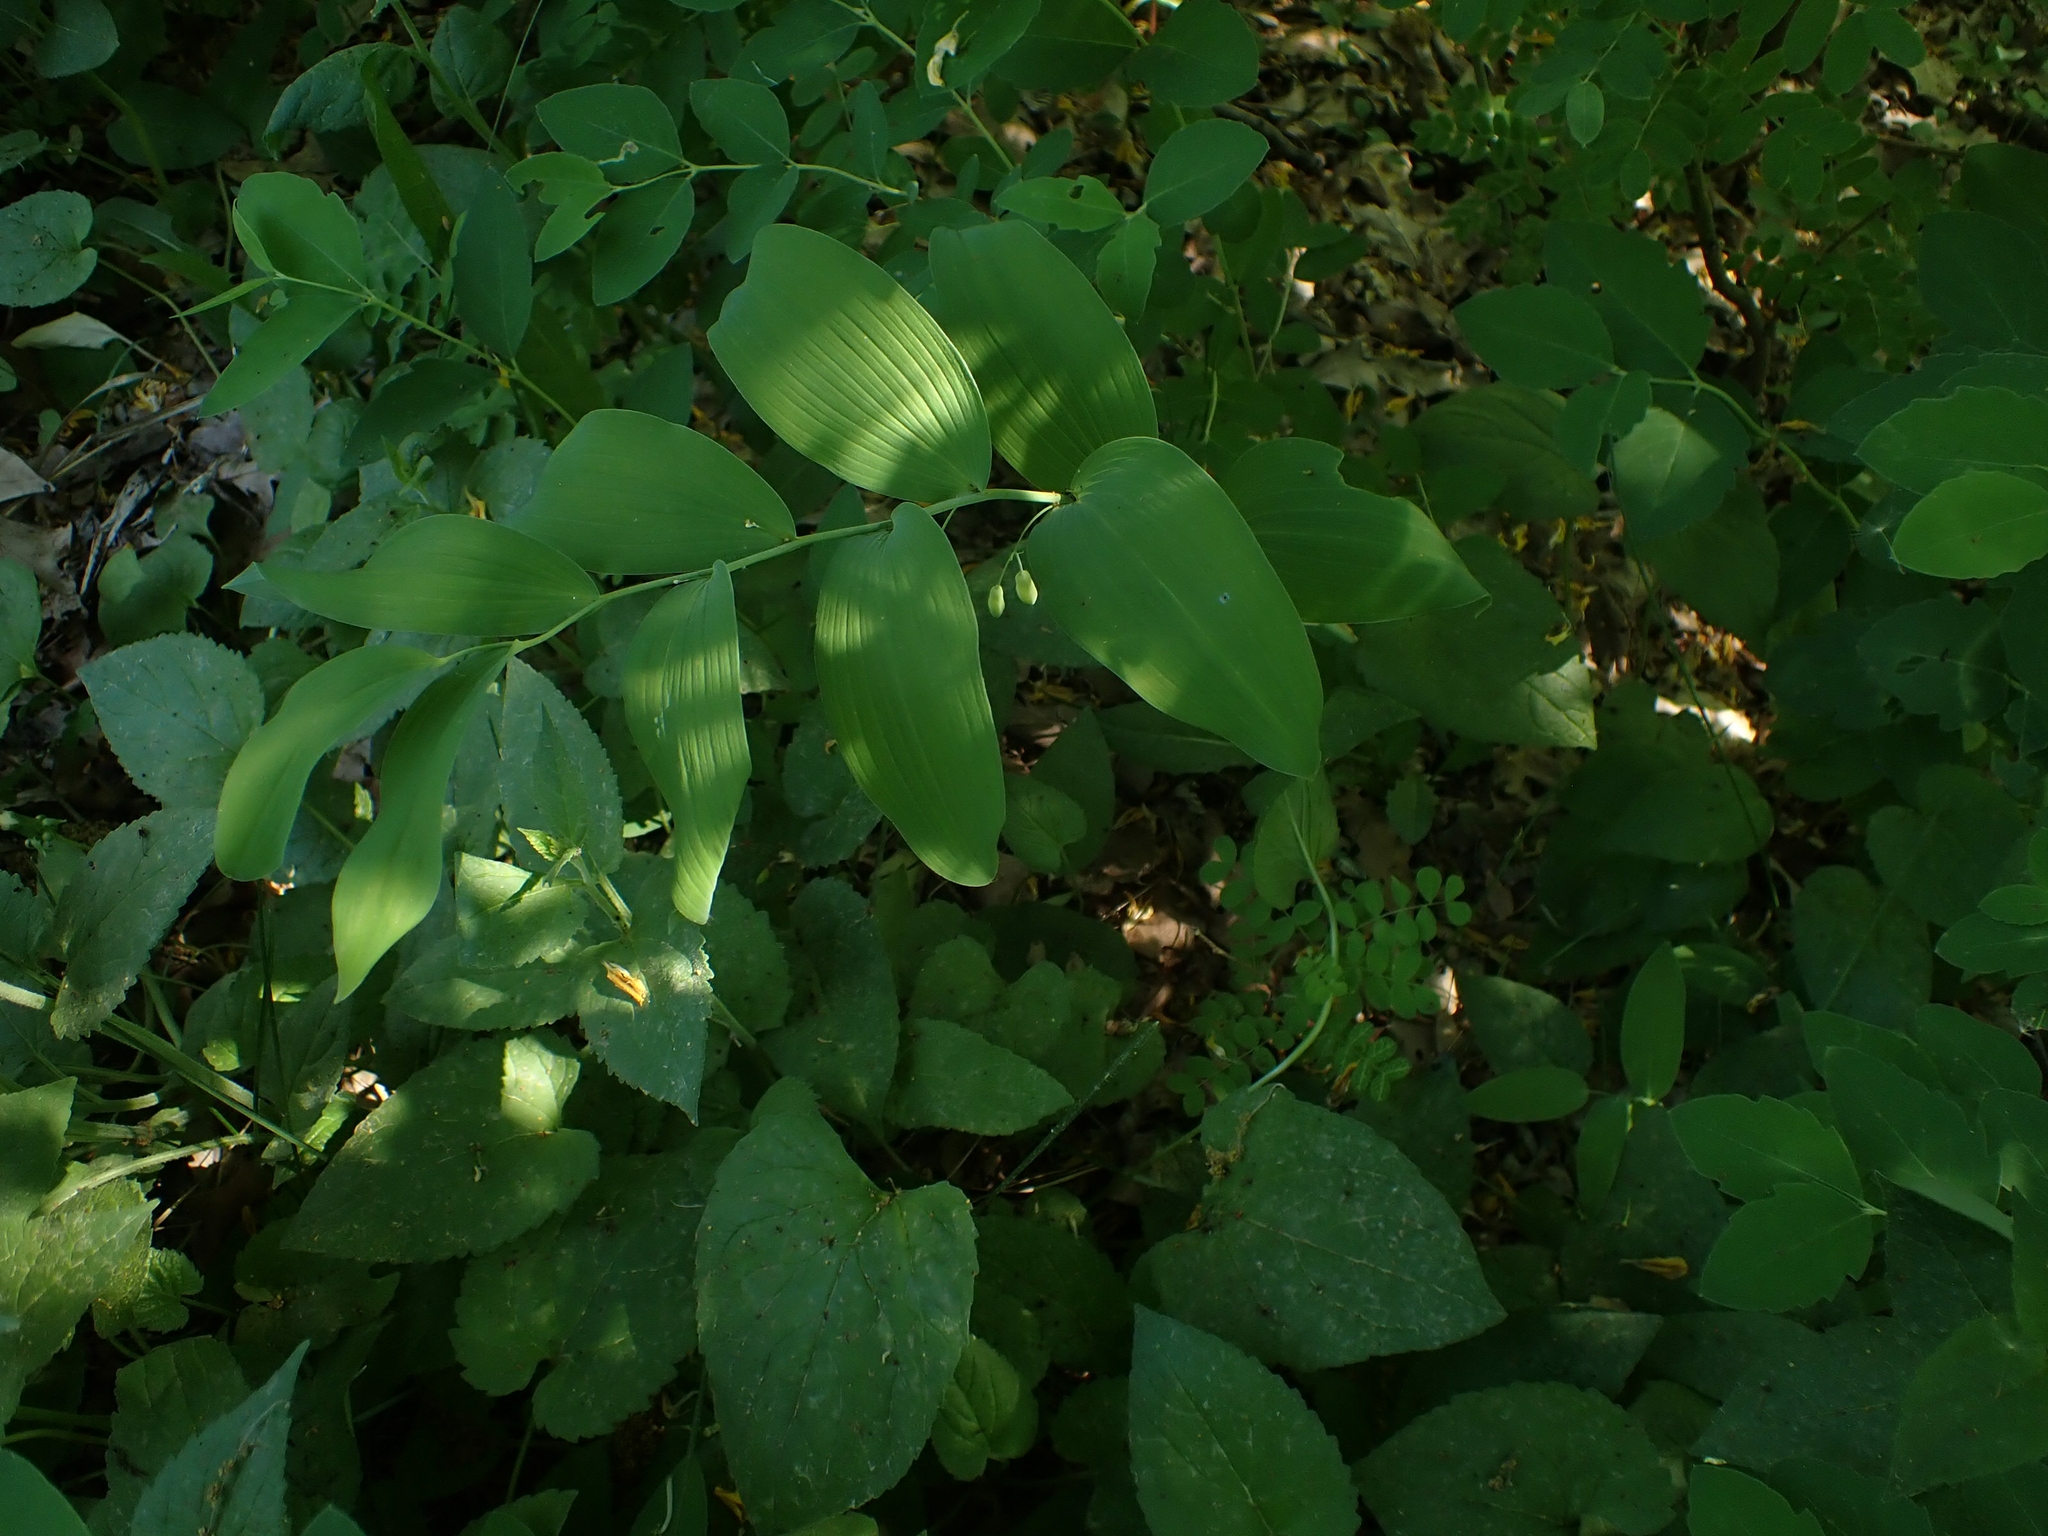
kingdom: Plantae
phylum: Tracheophyta
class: Liliopsida
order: Asparagales
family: Asparagaceae
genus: Polygonatum
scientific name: Polygonatum biflorum
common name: American solomon's-seal
